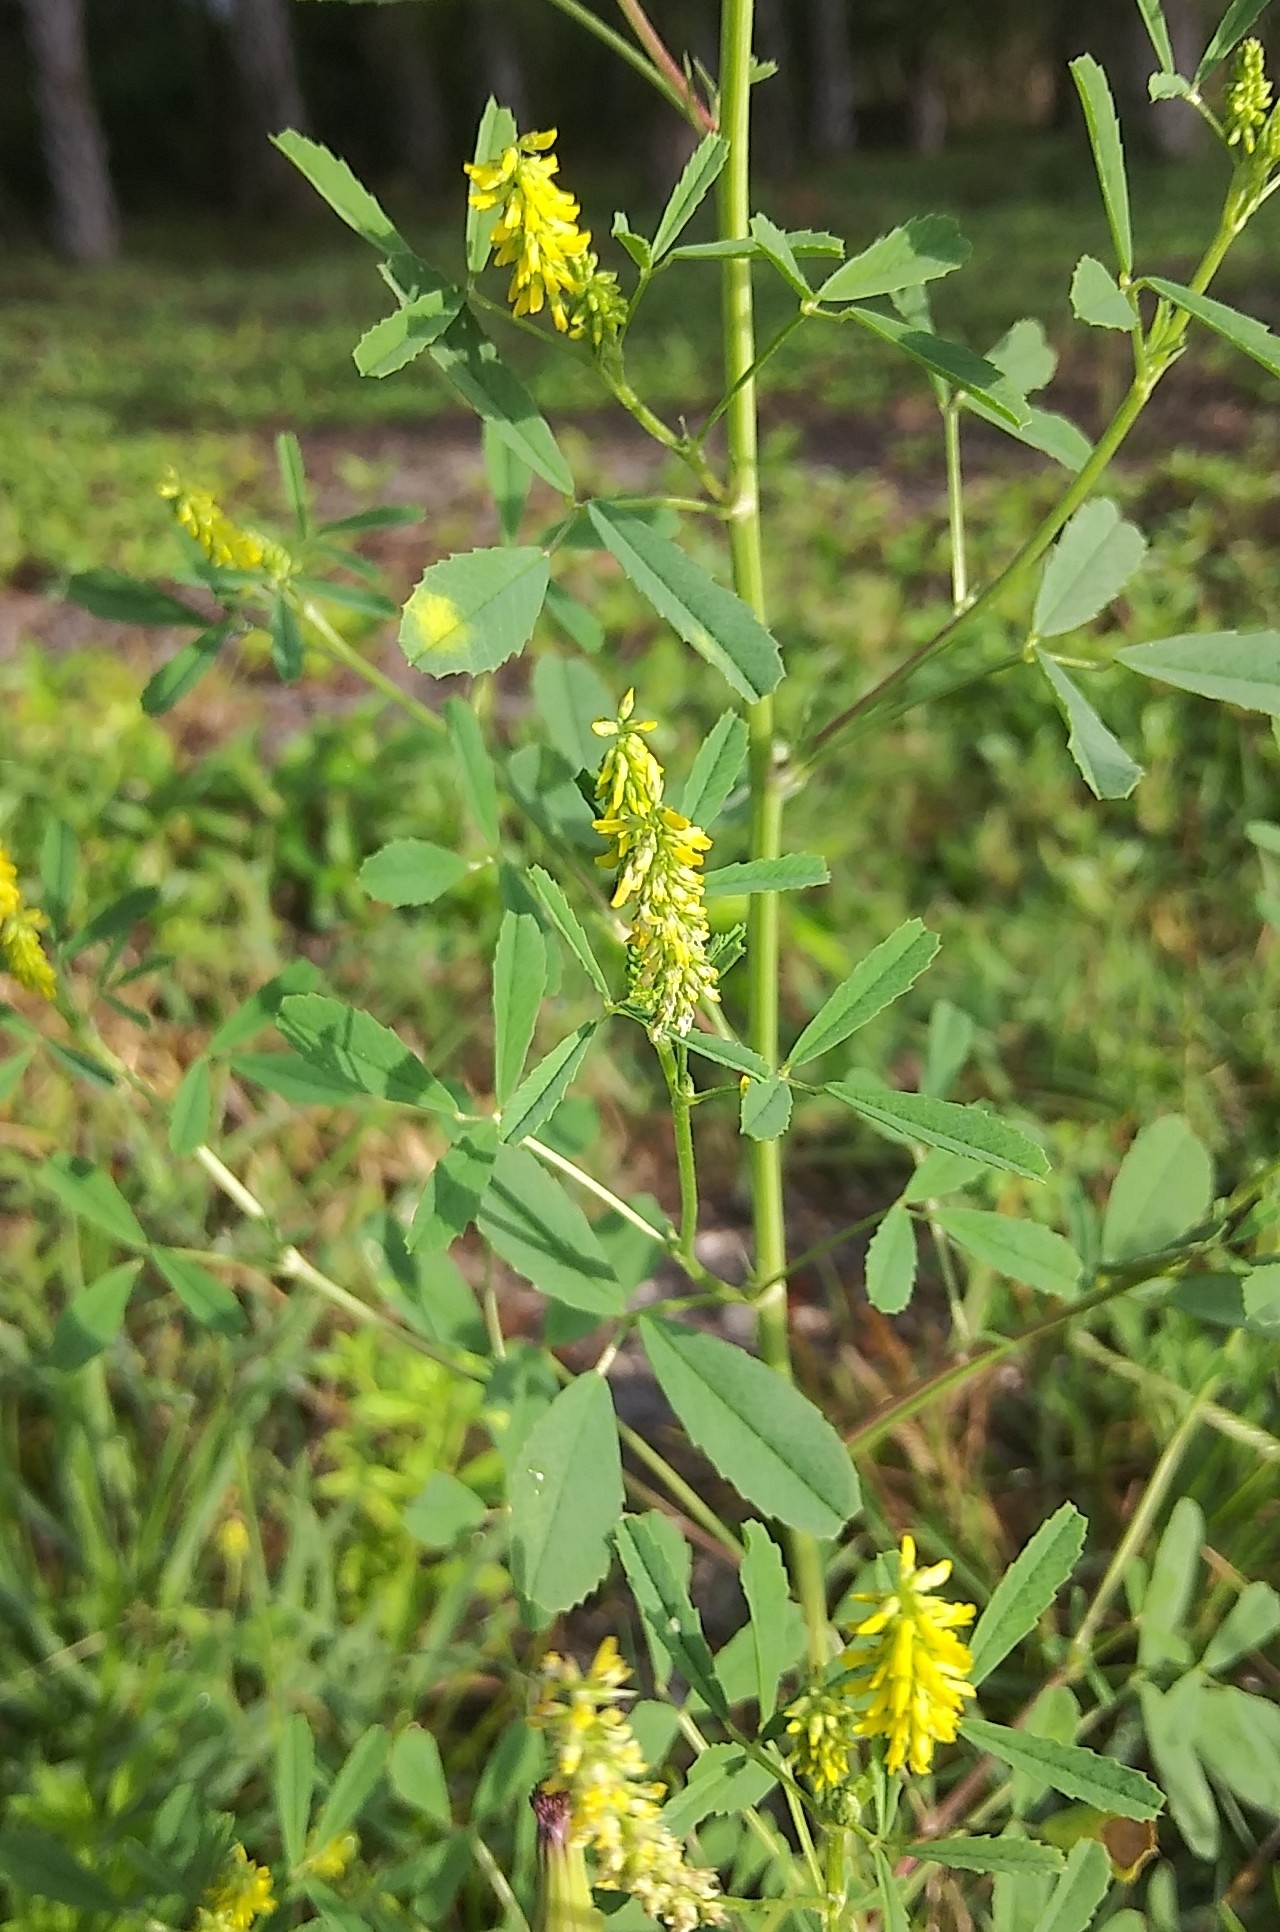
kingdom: Plantae
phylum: Tracheophyta
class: Magnoliopsida
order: Fabales
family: Fabaceae
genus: Melilotus
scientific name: Melilotus indicus
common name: Small melilot
